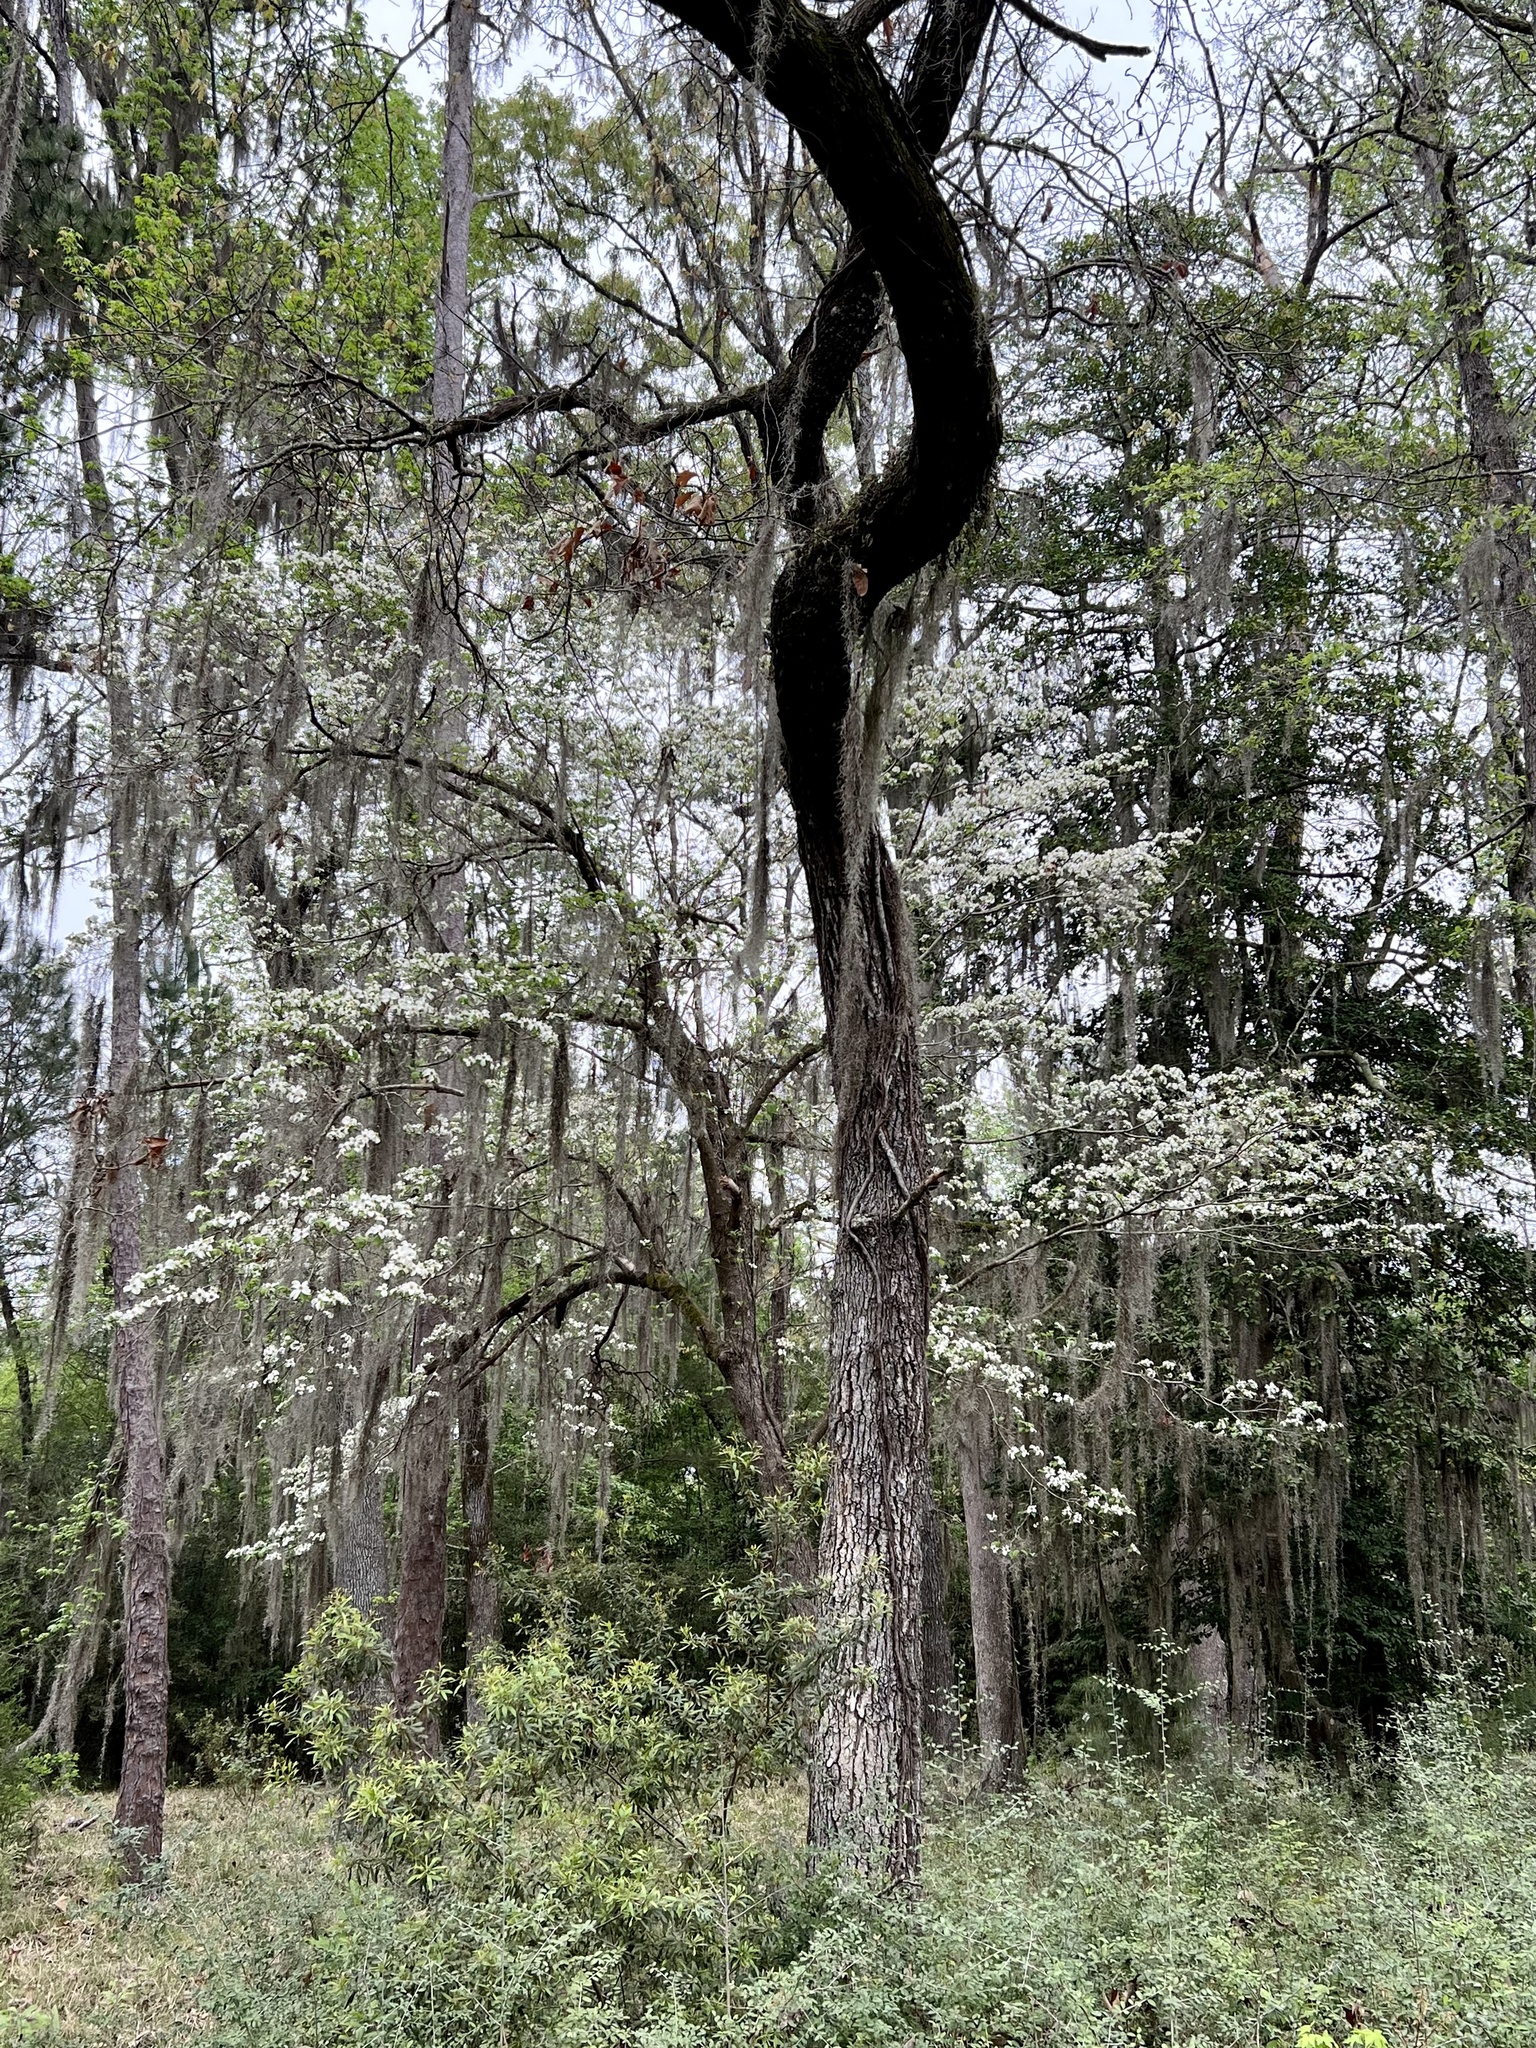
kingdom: Plantae
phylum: Tracheophyta
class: Magnoliopsida
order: Cornales
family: Cornaceae
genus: Cornus
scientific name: Cornus florida
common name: Flowering dogwood
